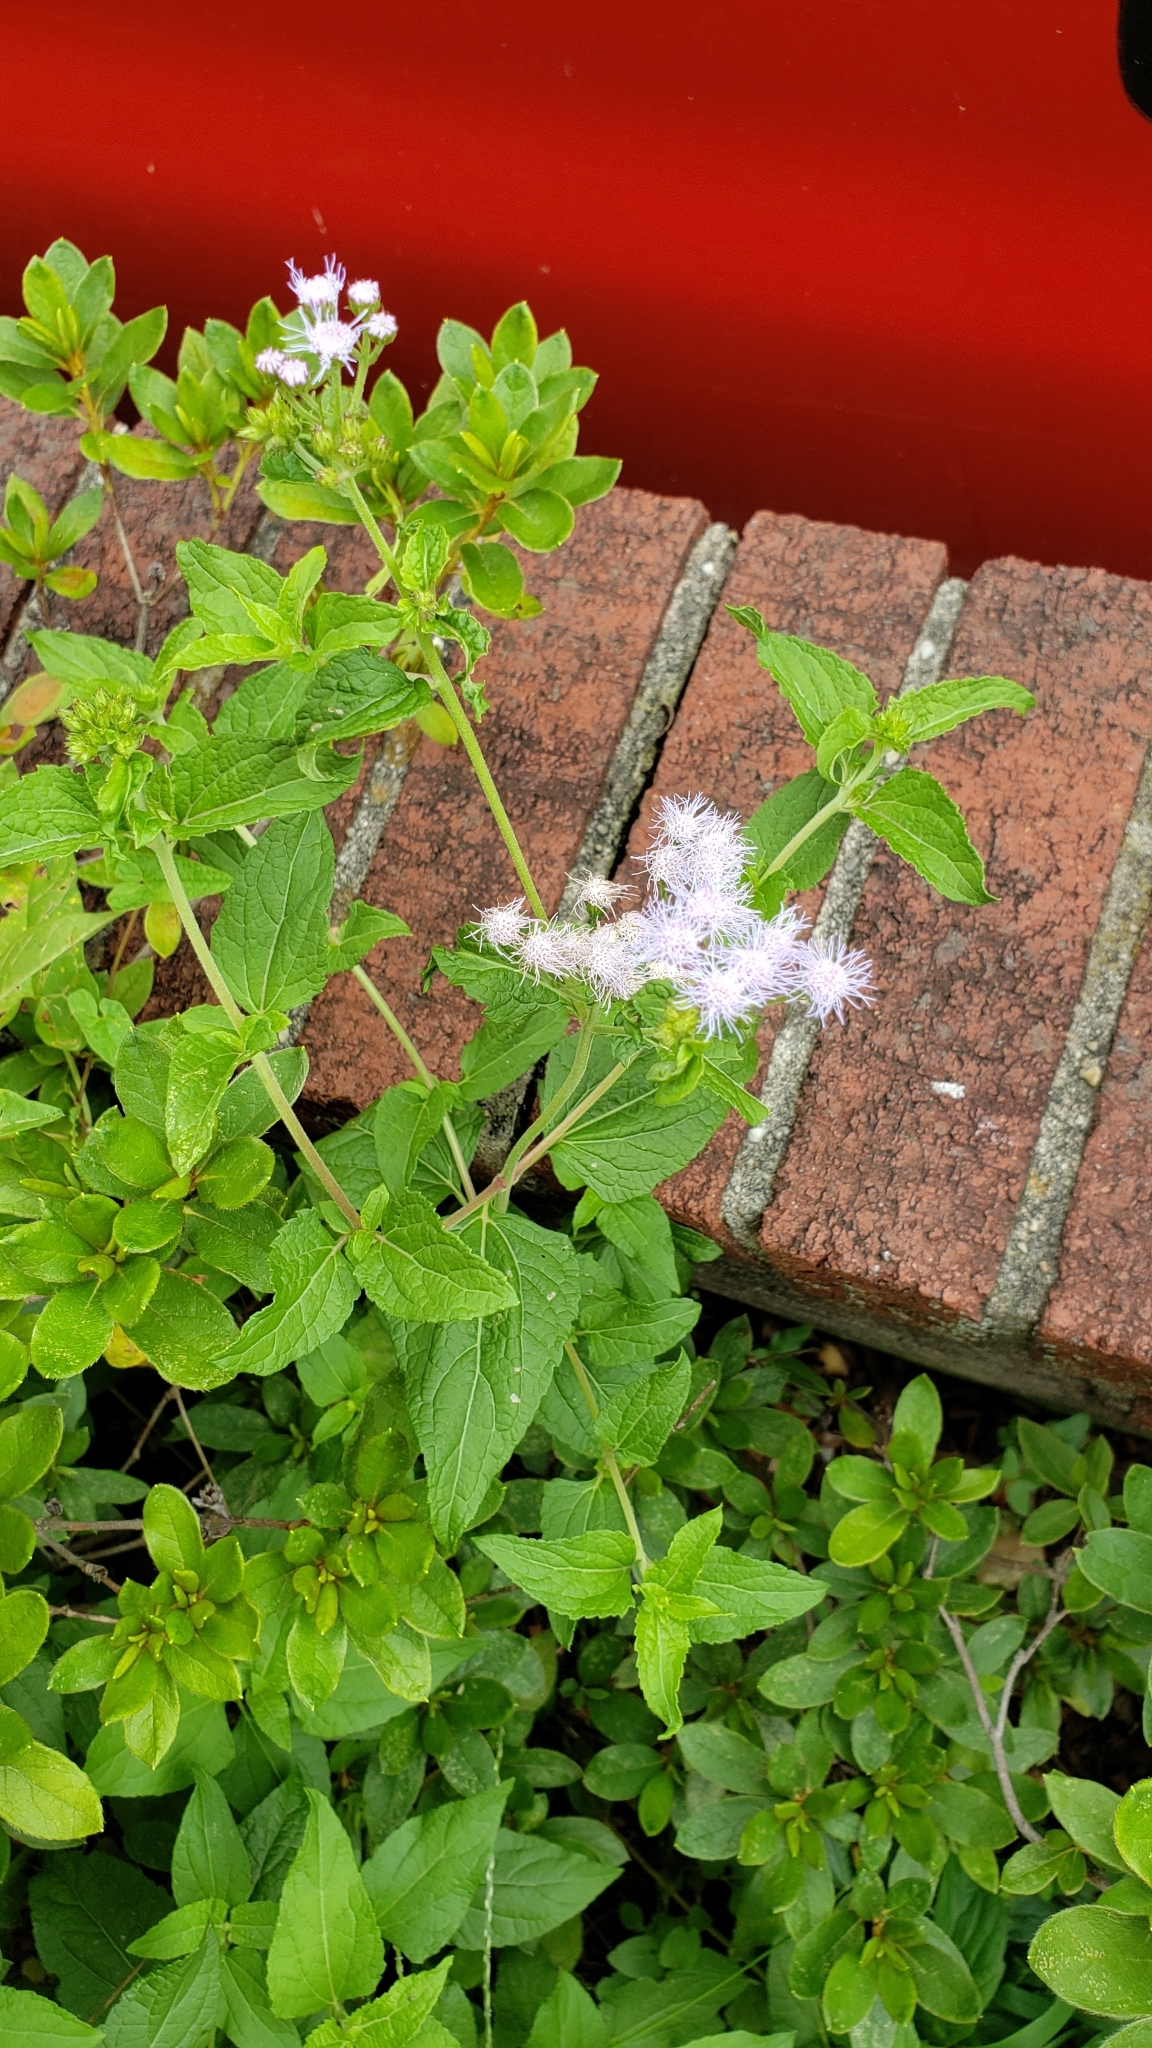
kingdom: Plantae
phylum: Tracheophyta
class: Magnoliopsida
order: Asterales
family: Asteraceae
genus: Conoclinium
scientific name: Conoclinium coelestinum
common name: Blue mistflower
